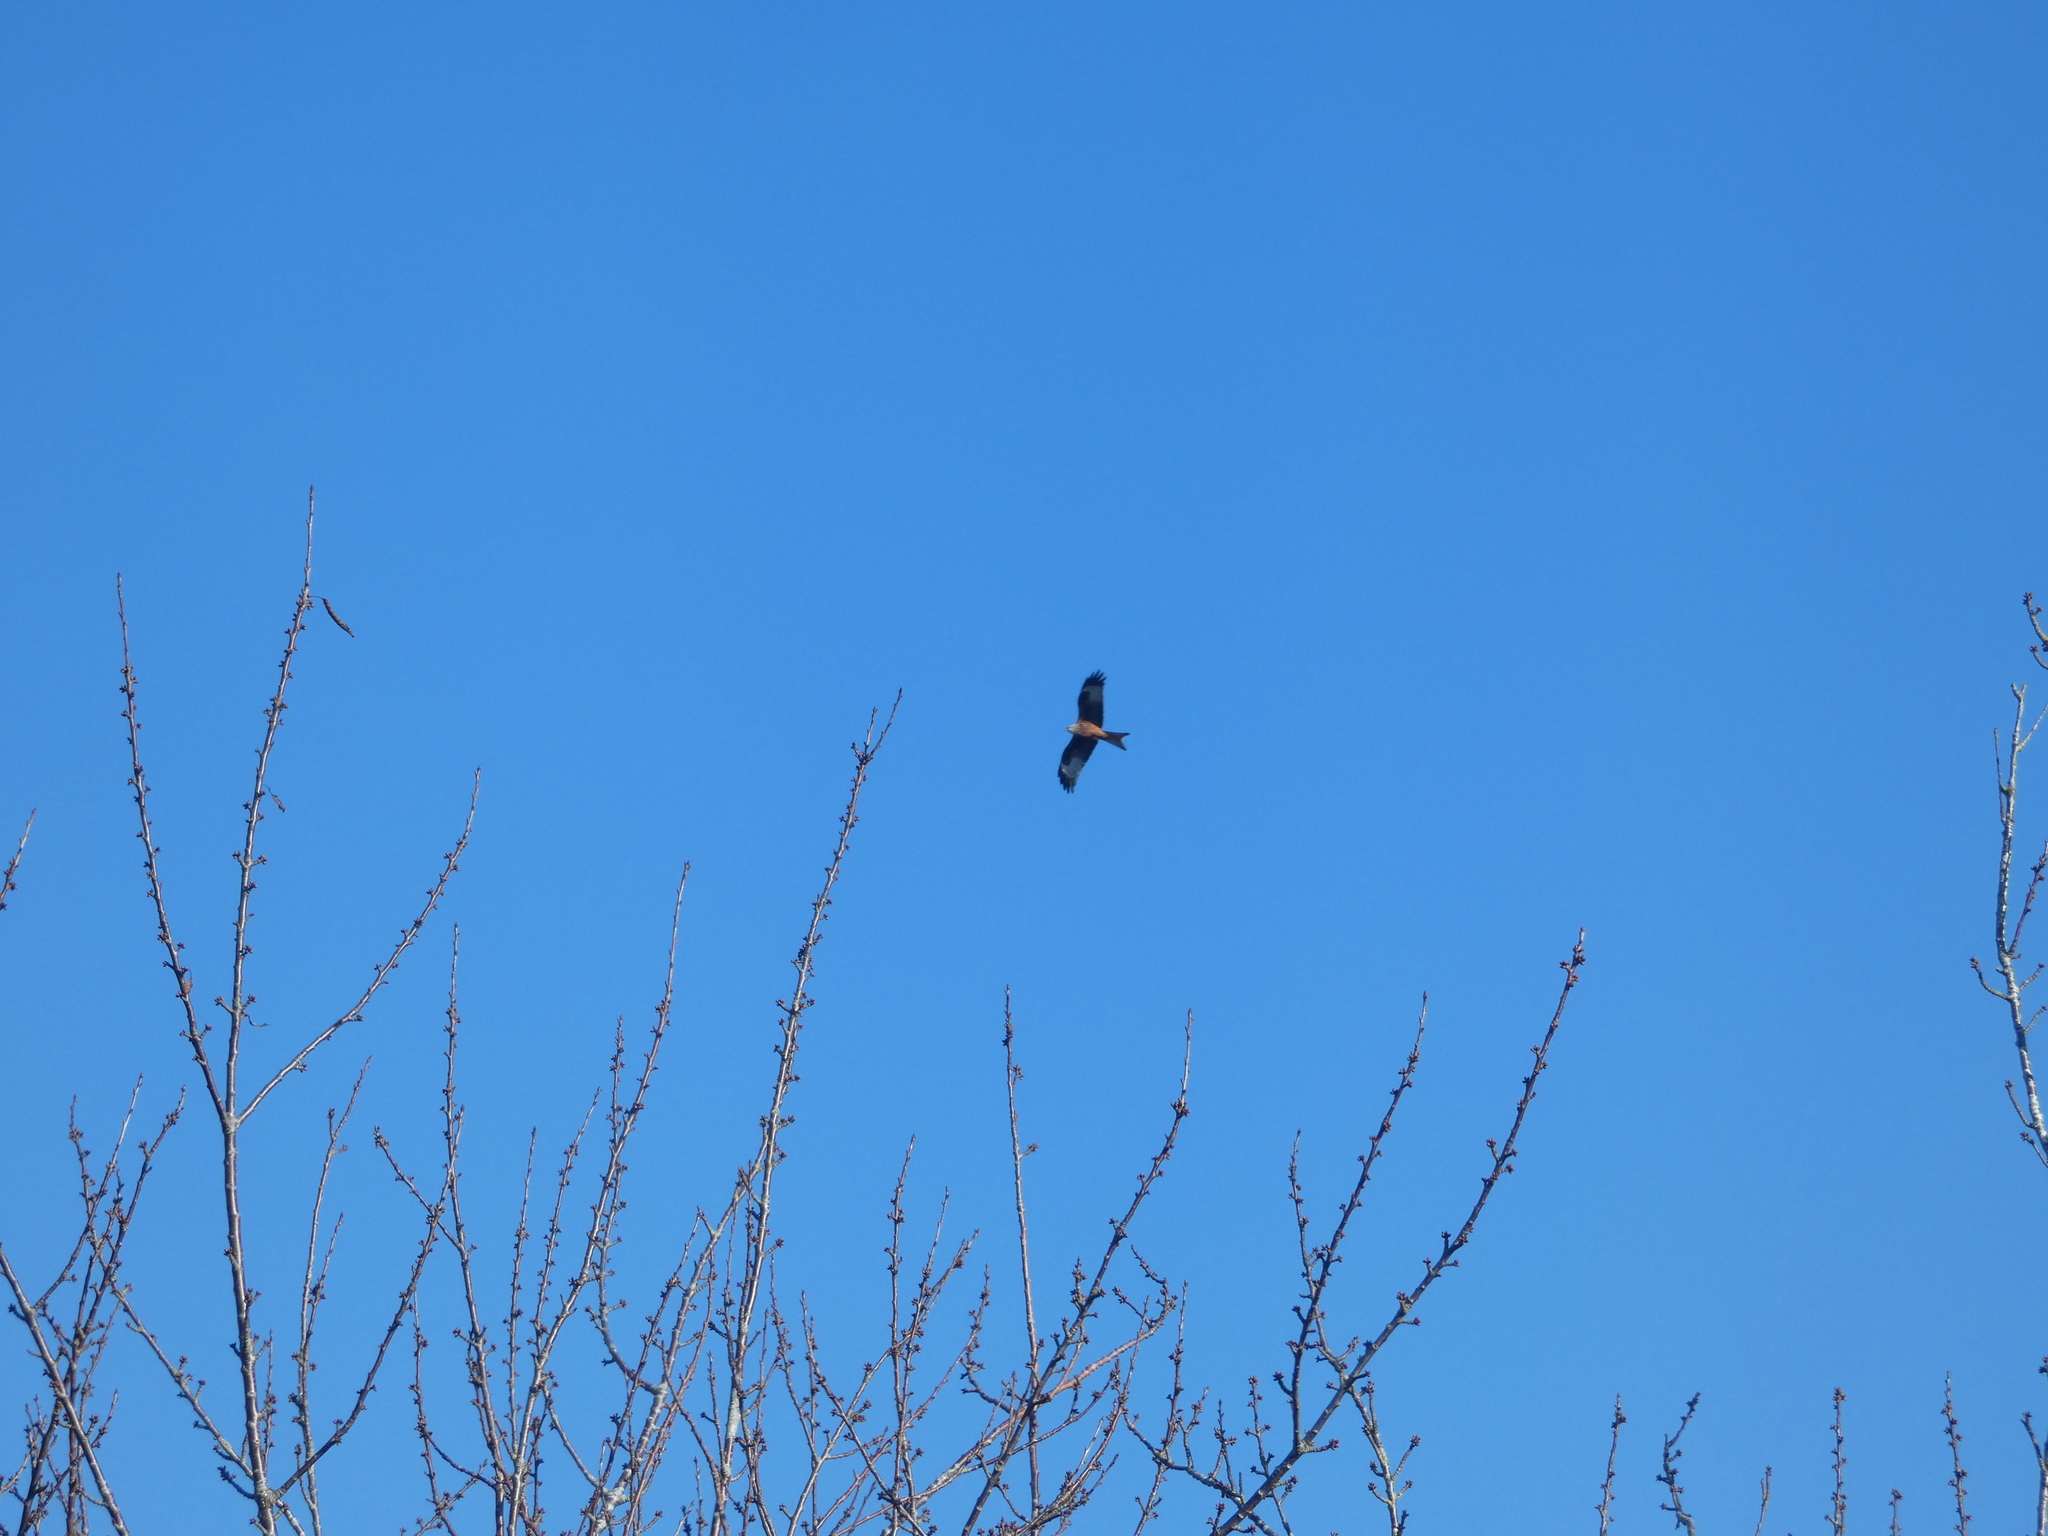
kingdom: Animalia
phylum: Chordata
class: Aves
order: Accipitriformes
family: Accipitridae
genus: Milvus
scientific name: Milvus milvus
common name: Red kite
